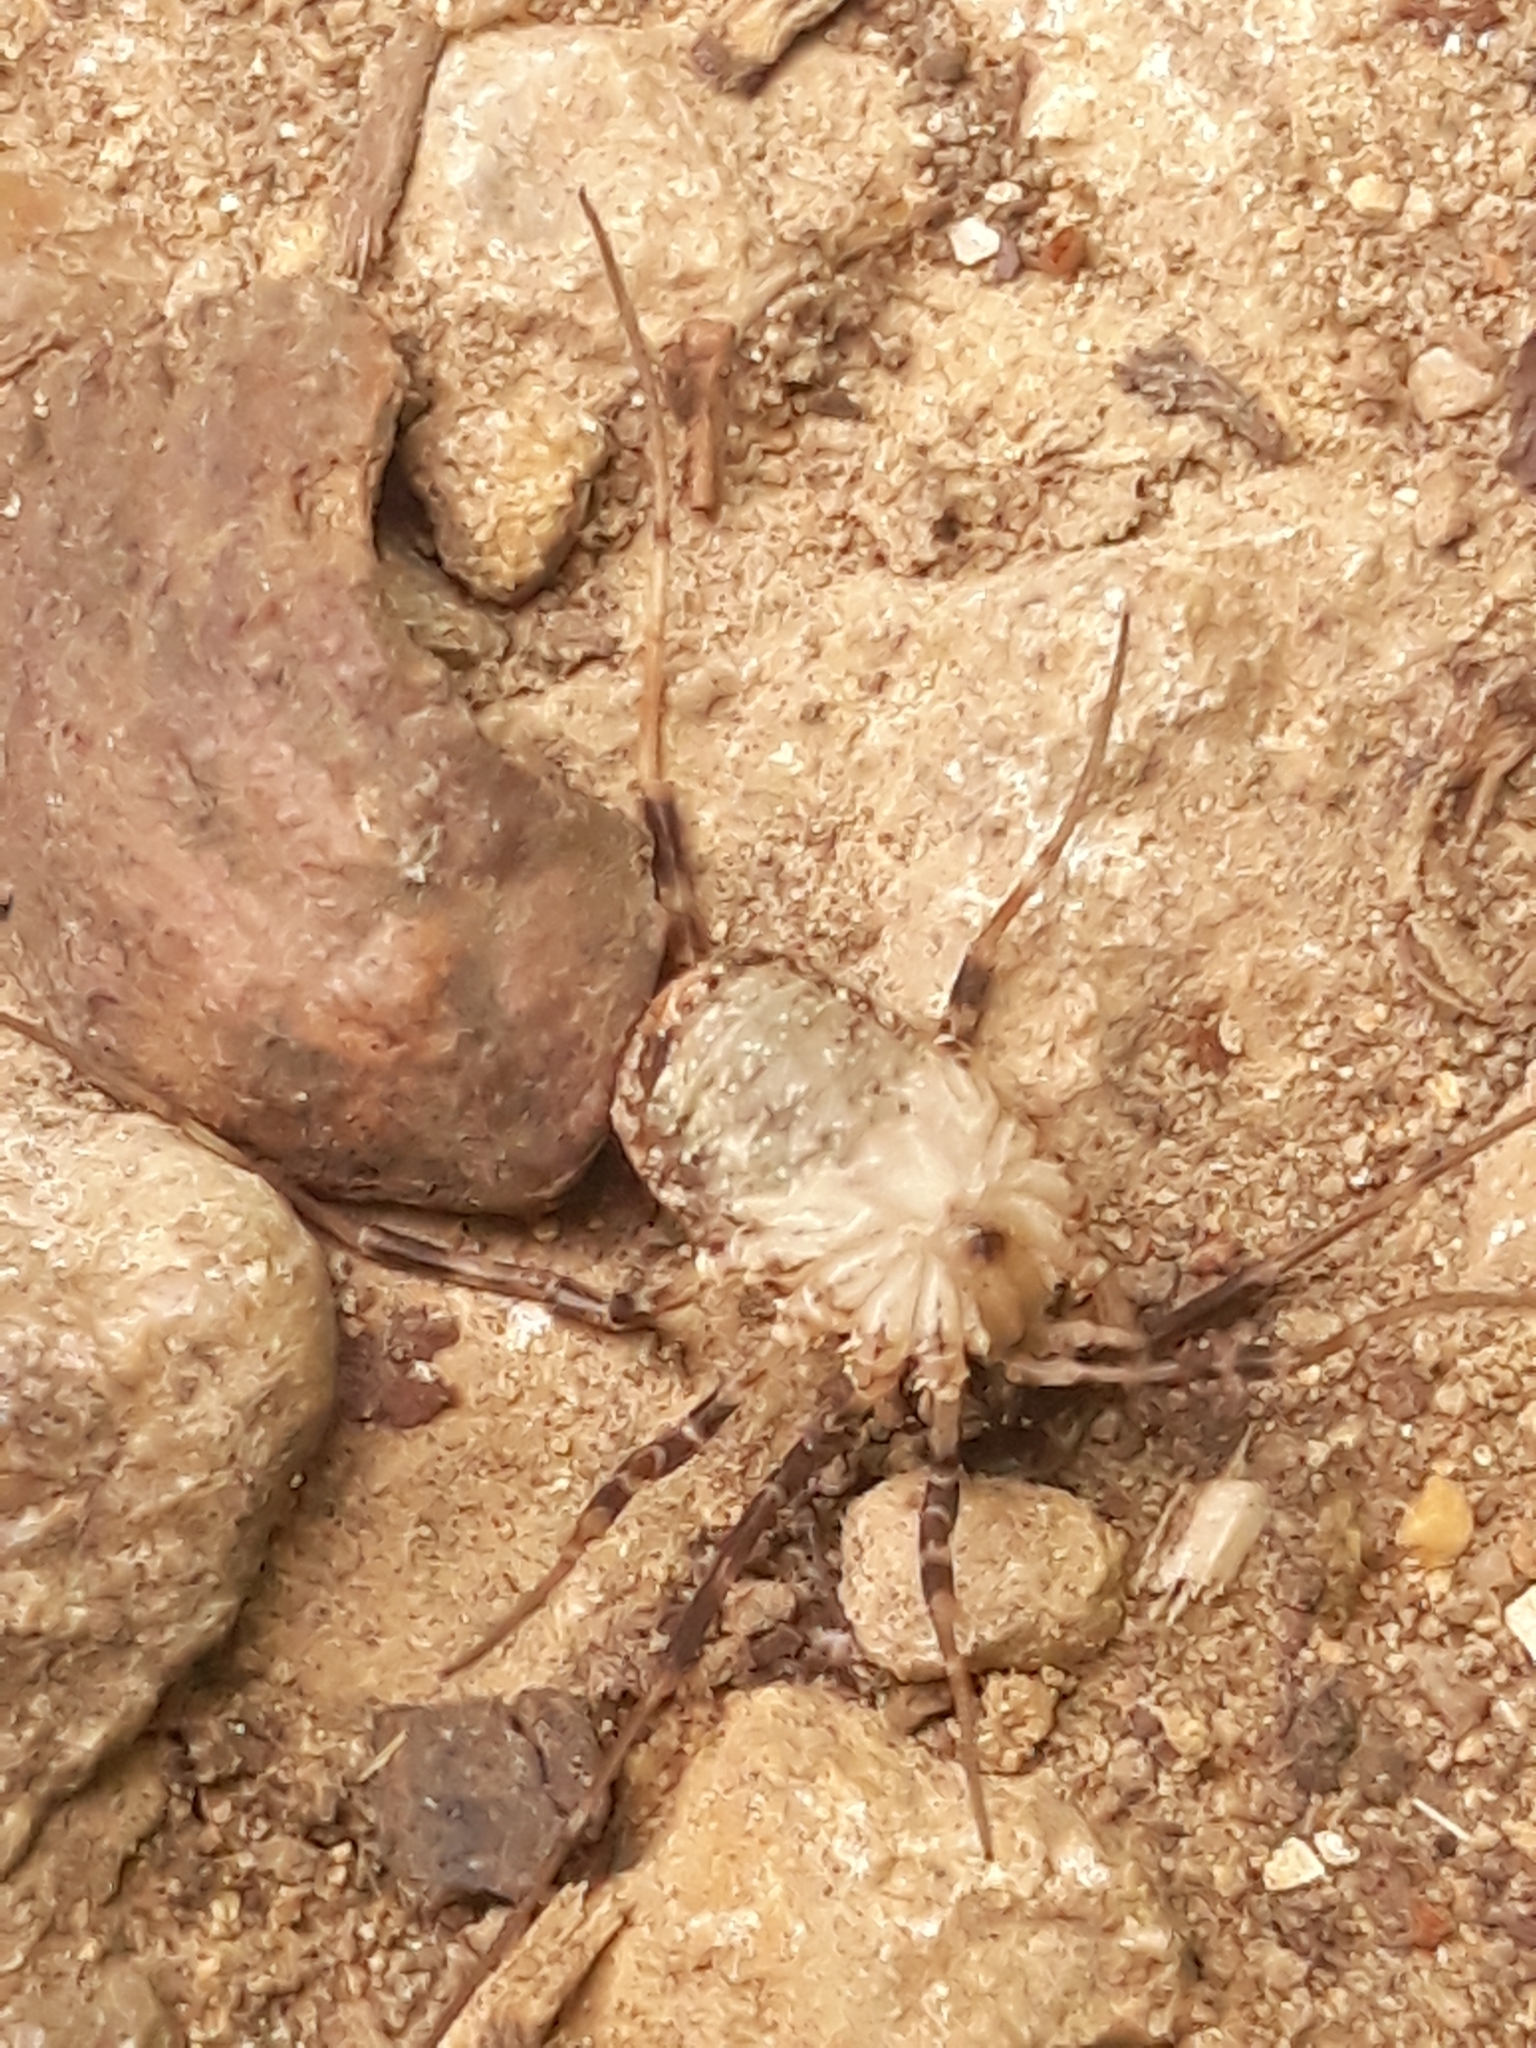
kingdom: Animalia
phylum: Arthropoda
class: Arachnida
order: Opiliones
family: Phalangiidae
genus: Odiellus
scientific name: Odiellus spinosus
